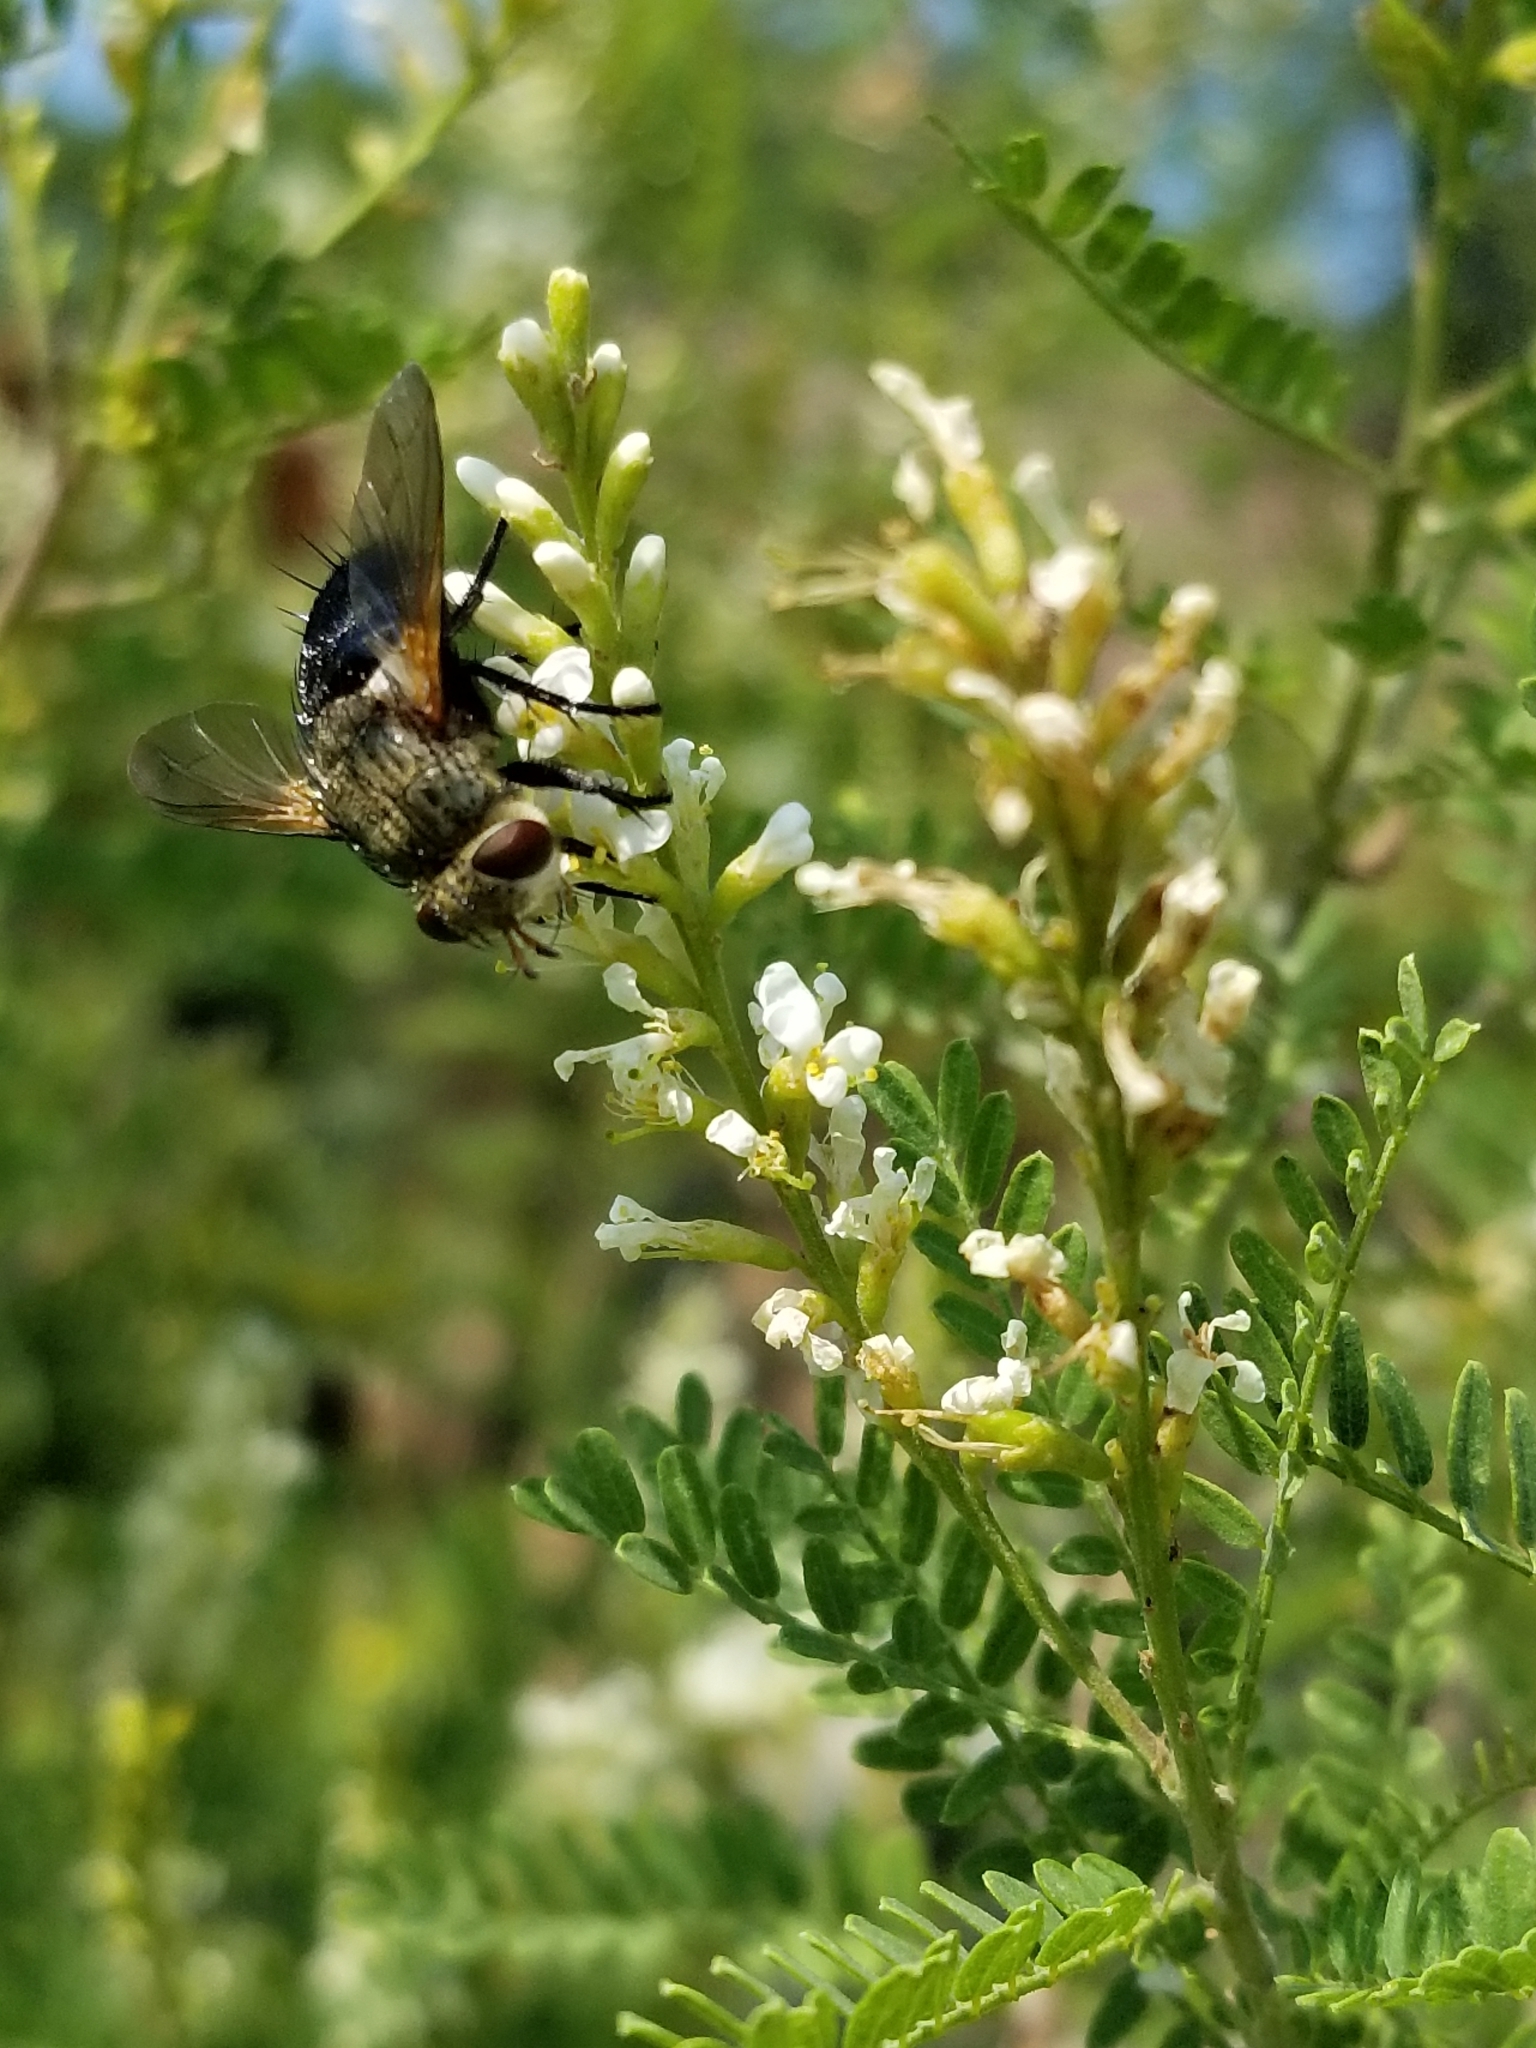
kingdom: Animalia
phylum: Arthropoda
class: Insecta
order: Diptera
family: Tachinidae
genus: Archytas
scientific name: Archytas
